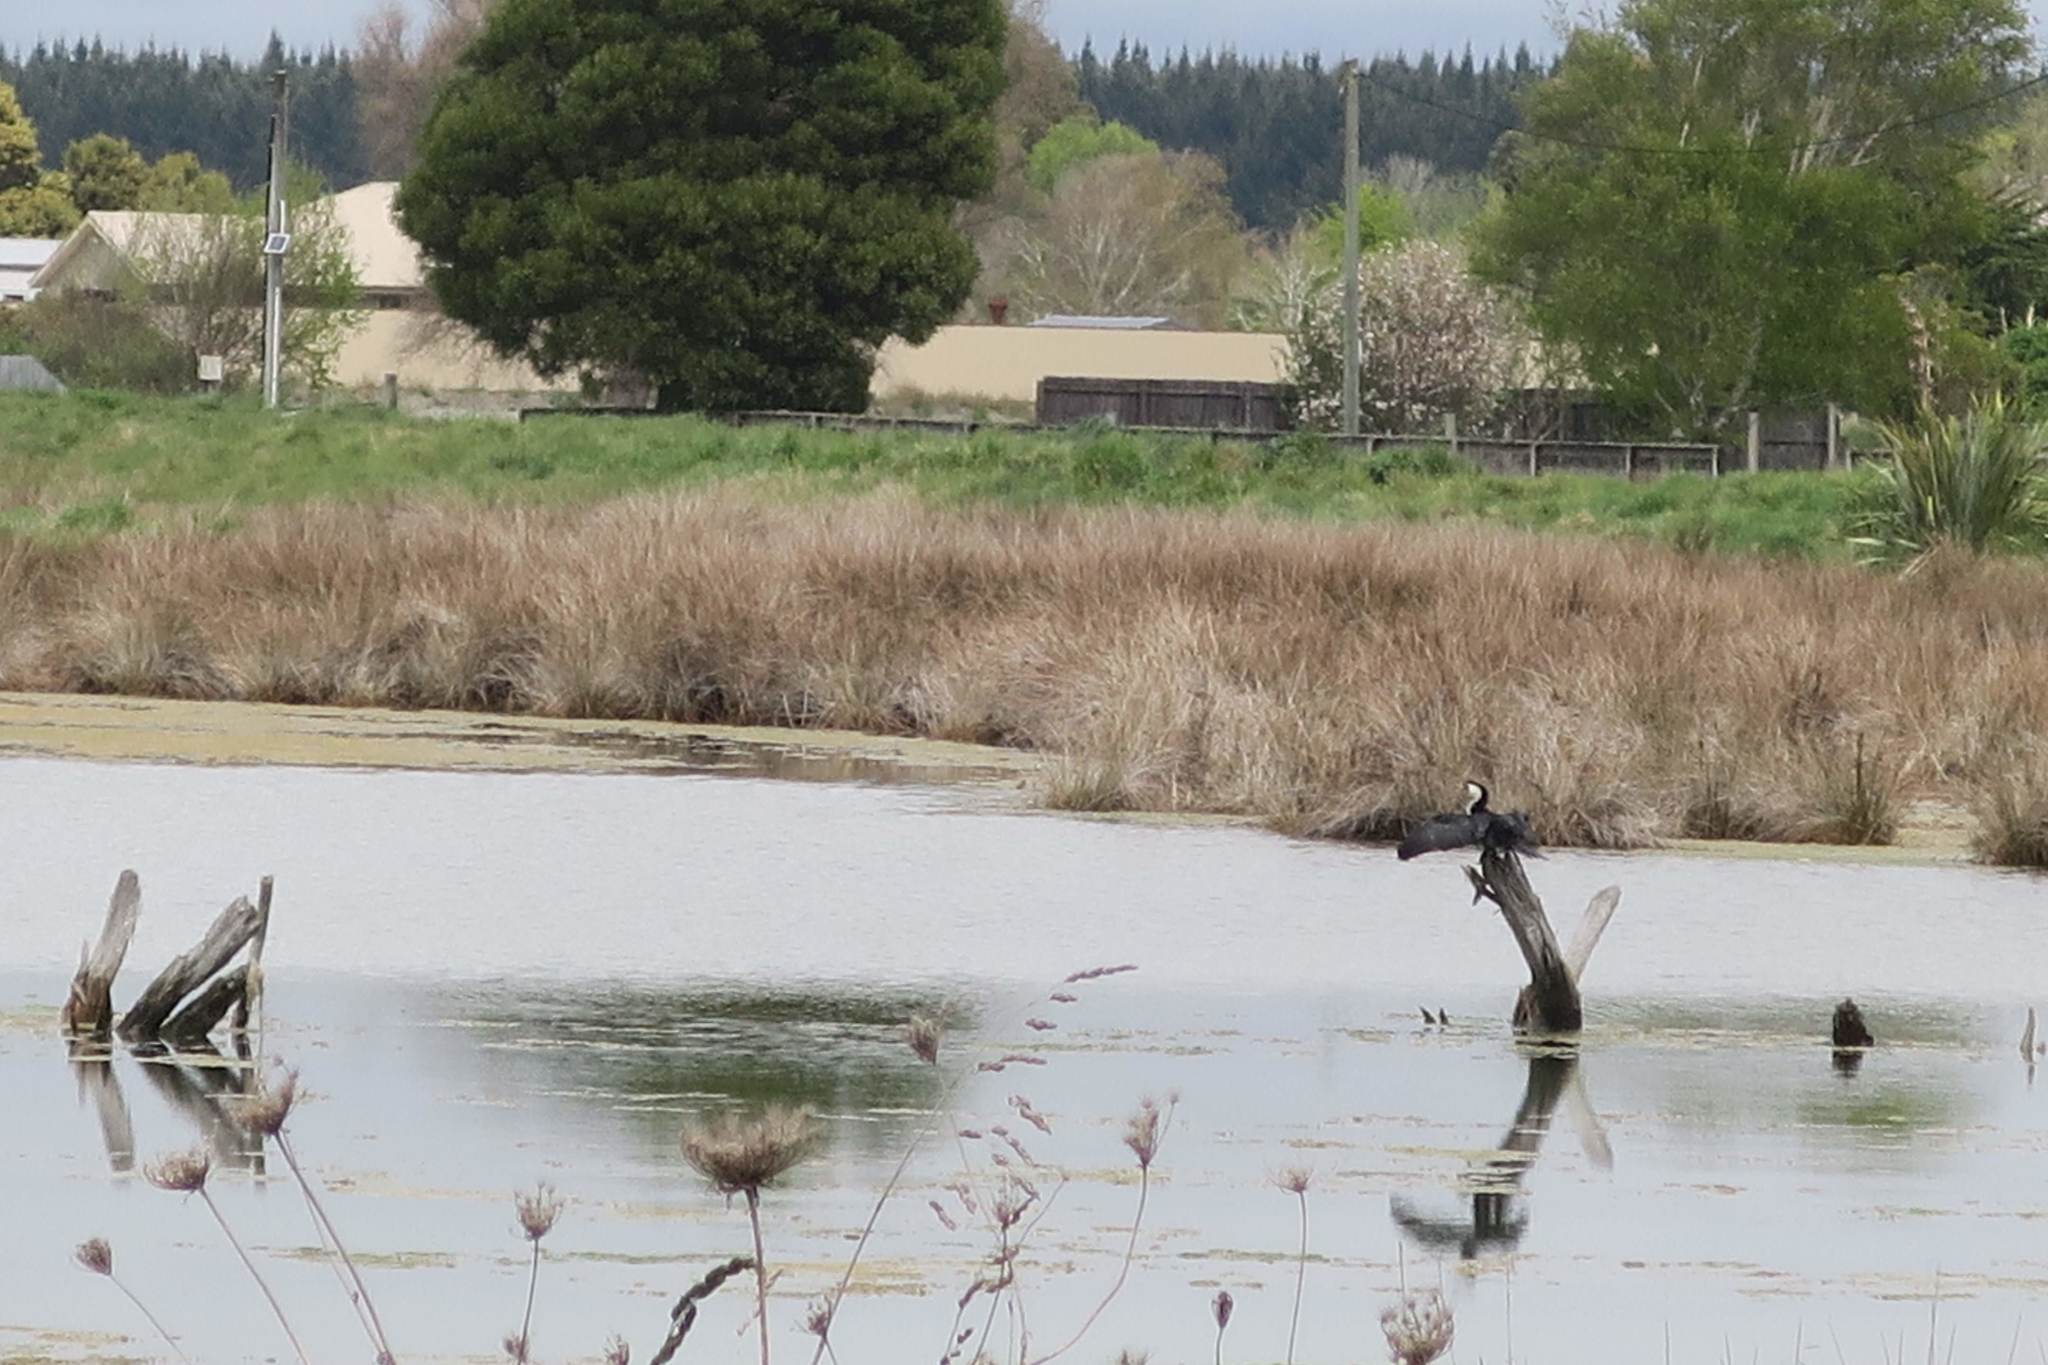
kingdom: Animalia
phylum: Chordata
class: Aves
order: Suliformes
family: Phalacrocoracidae
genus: Phalacrocorax
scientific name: Phalacrocorax varius
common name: Pied cormorant
